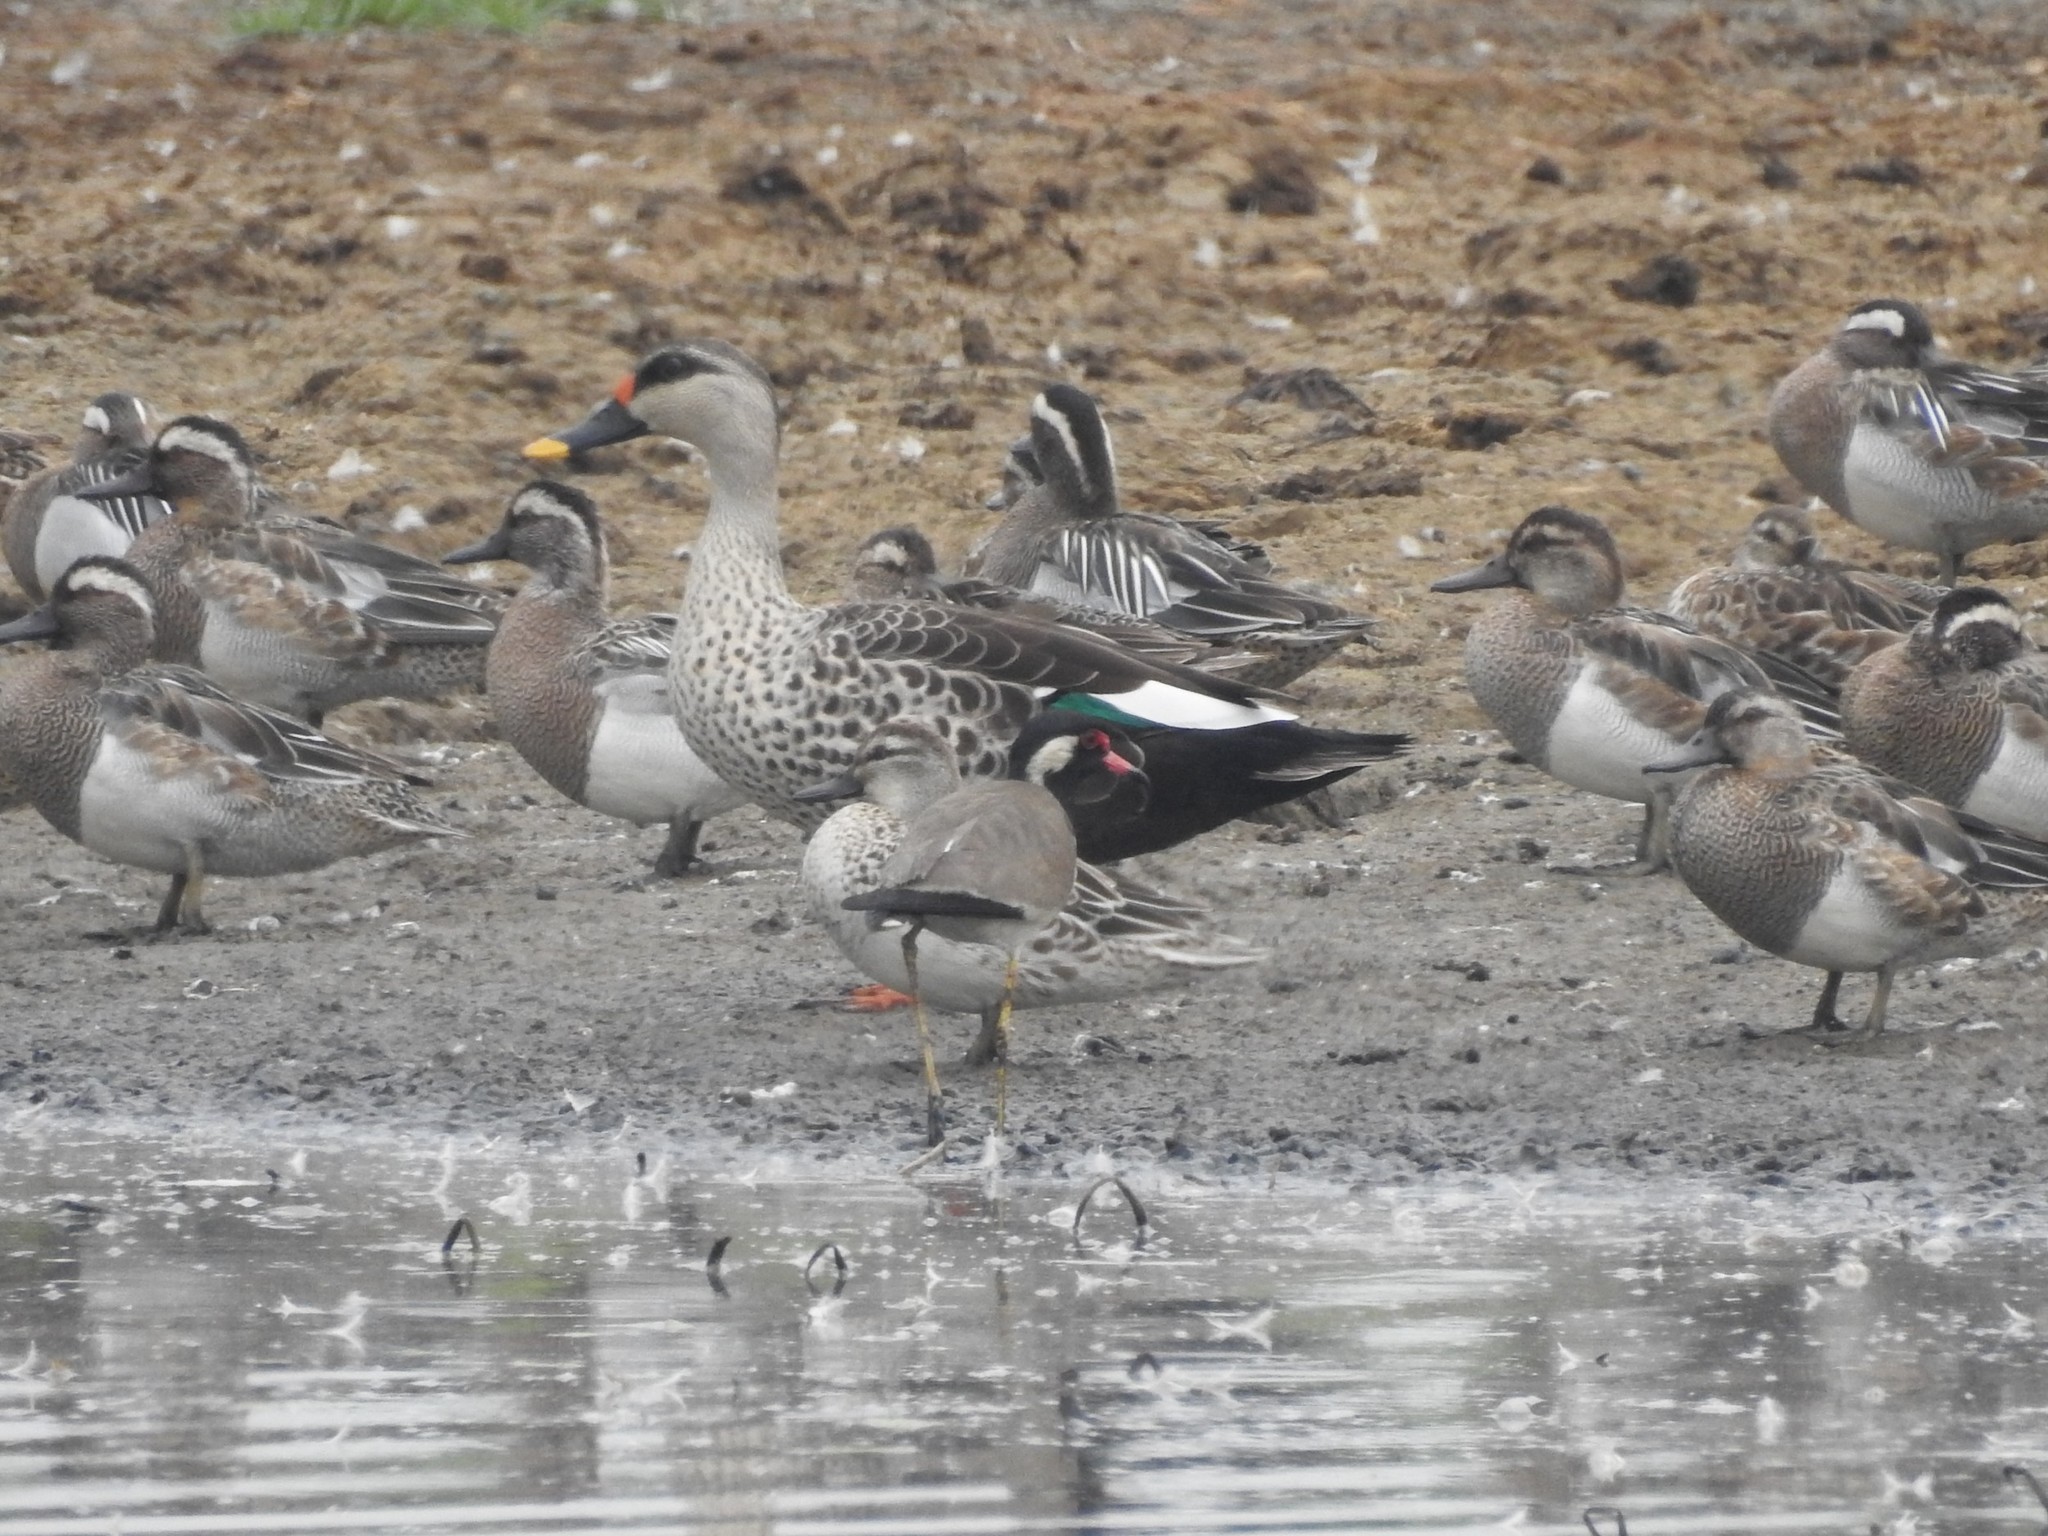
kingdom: Animalia
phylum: Chordata
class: Aves
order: Anseriformes
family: Anatidae
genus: Anas
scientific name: Anas poecilorhyncha
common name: Indian spot-billed duck
